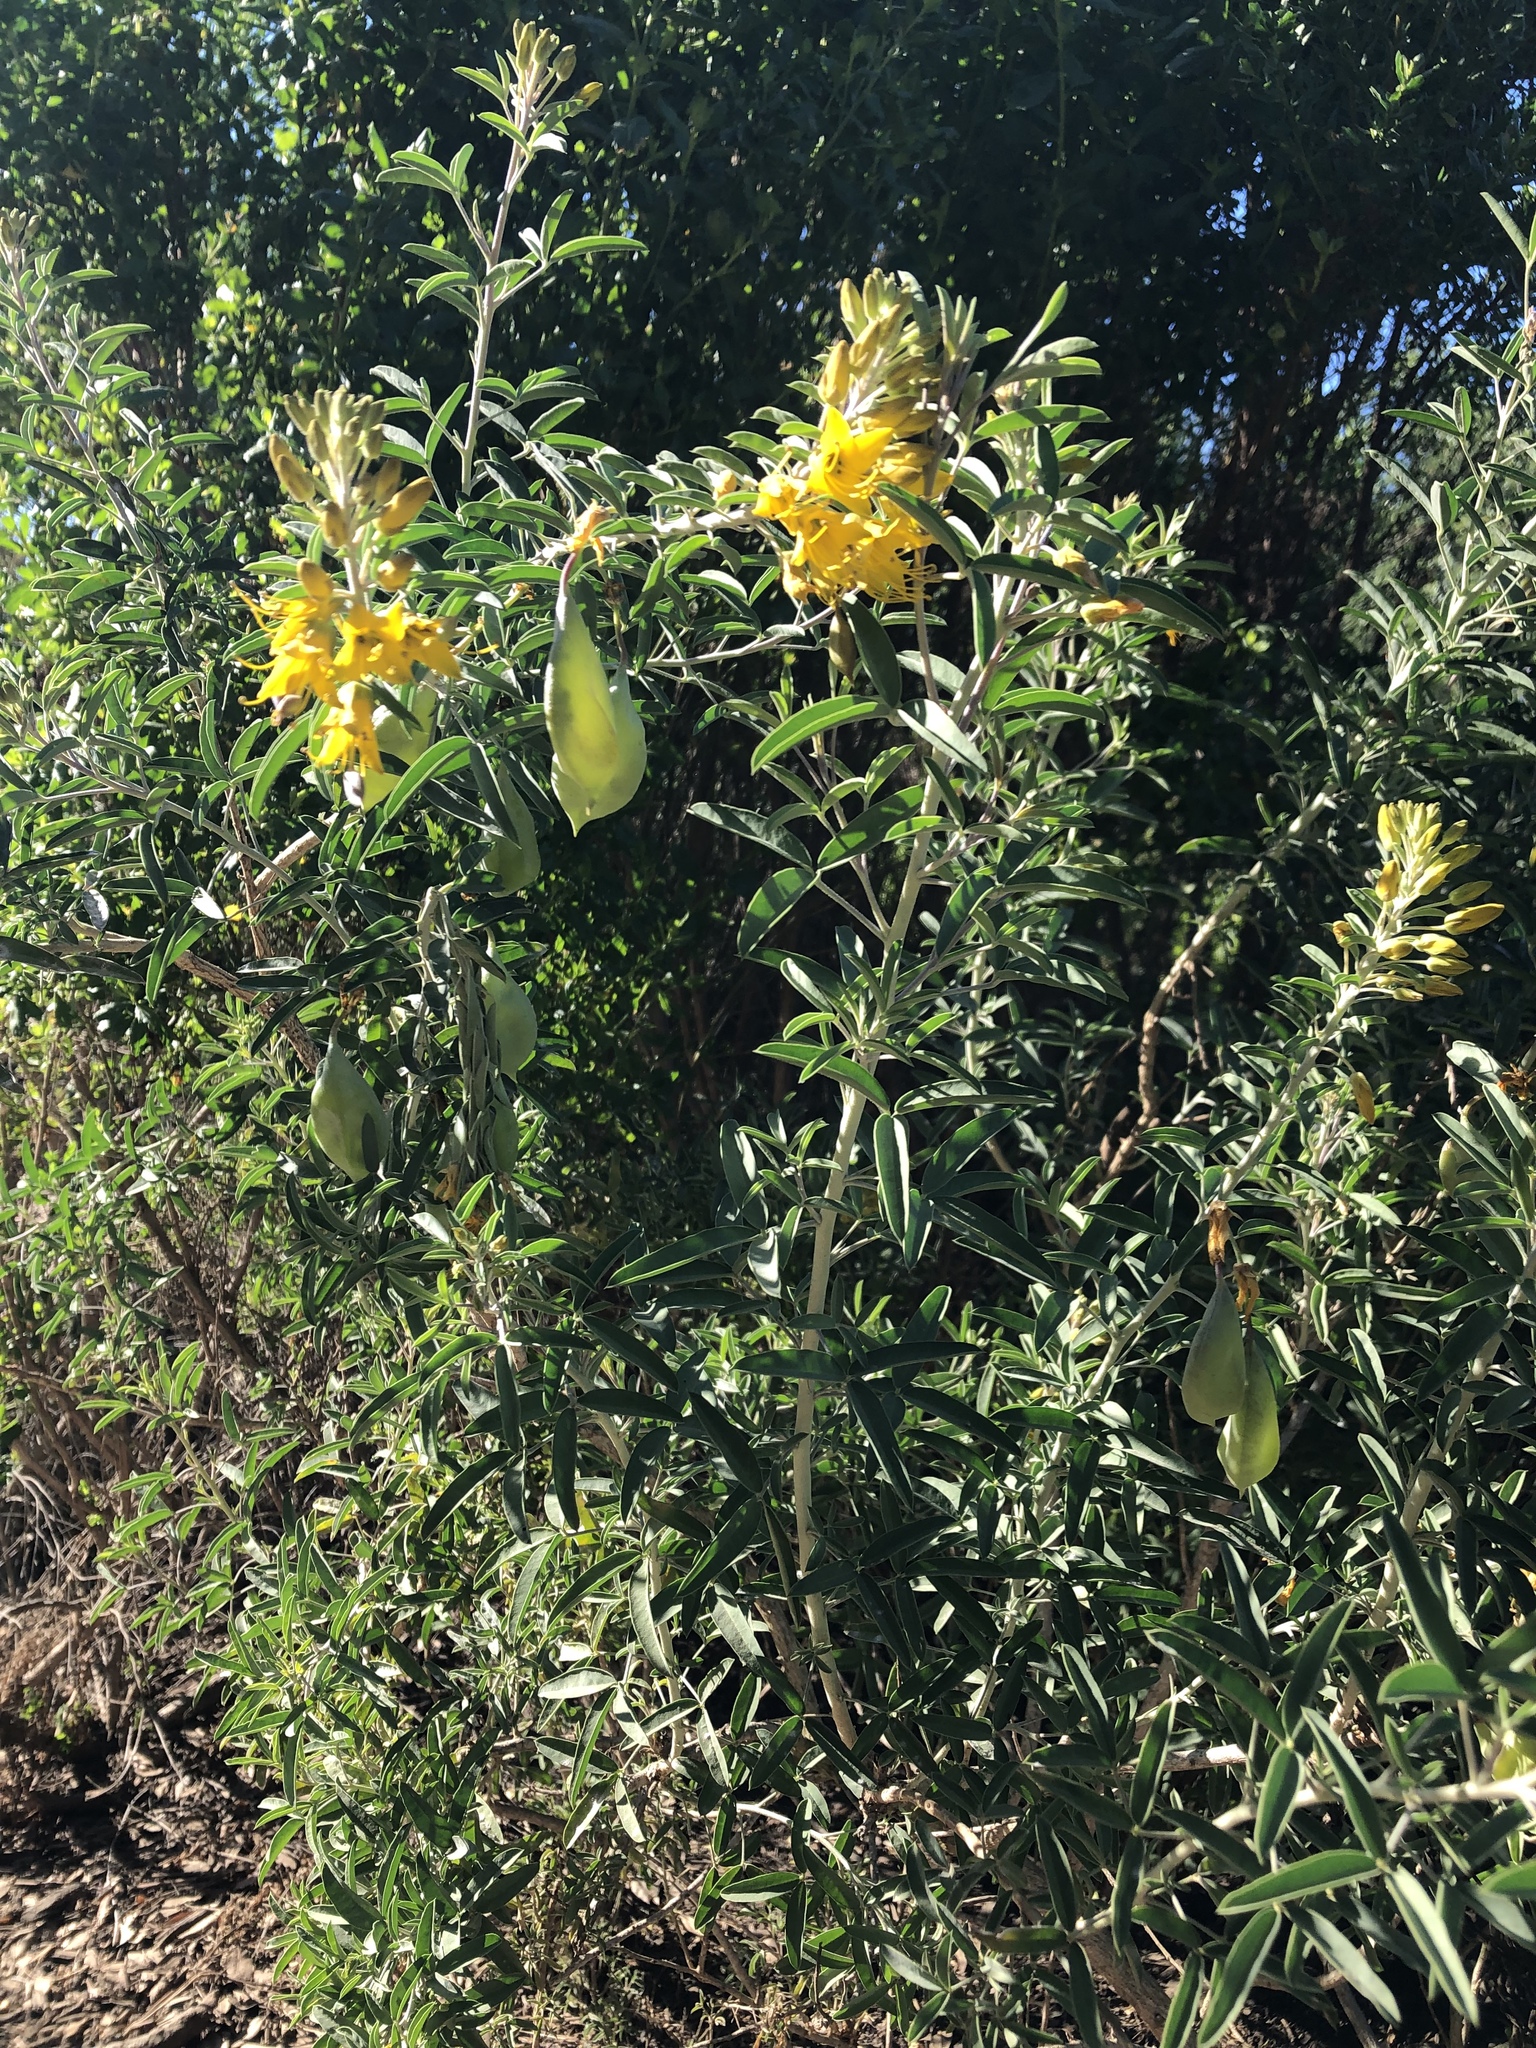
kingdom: Plantae
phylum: Tracheophyta
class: Magnoliopsida
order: Brassicales
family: Cleomaceae
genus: Cleomella
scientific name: Cleomella arborea
